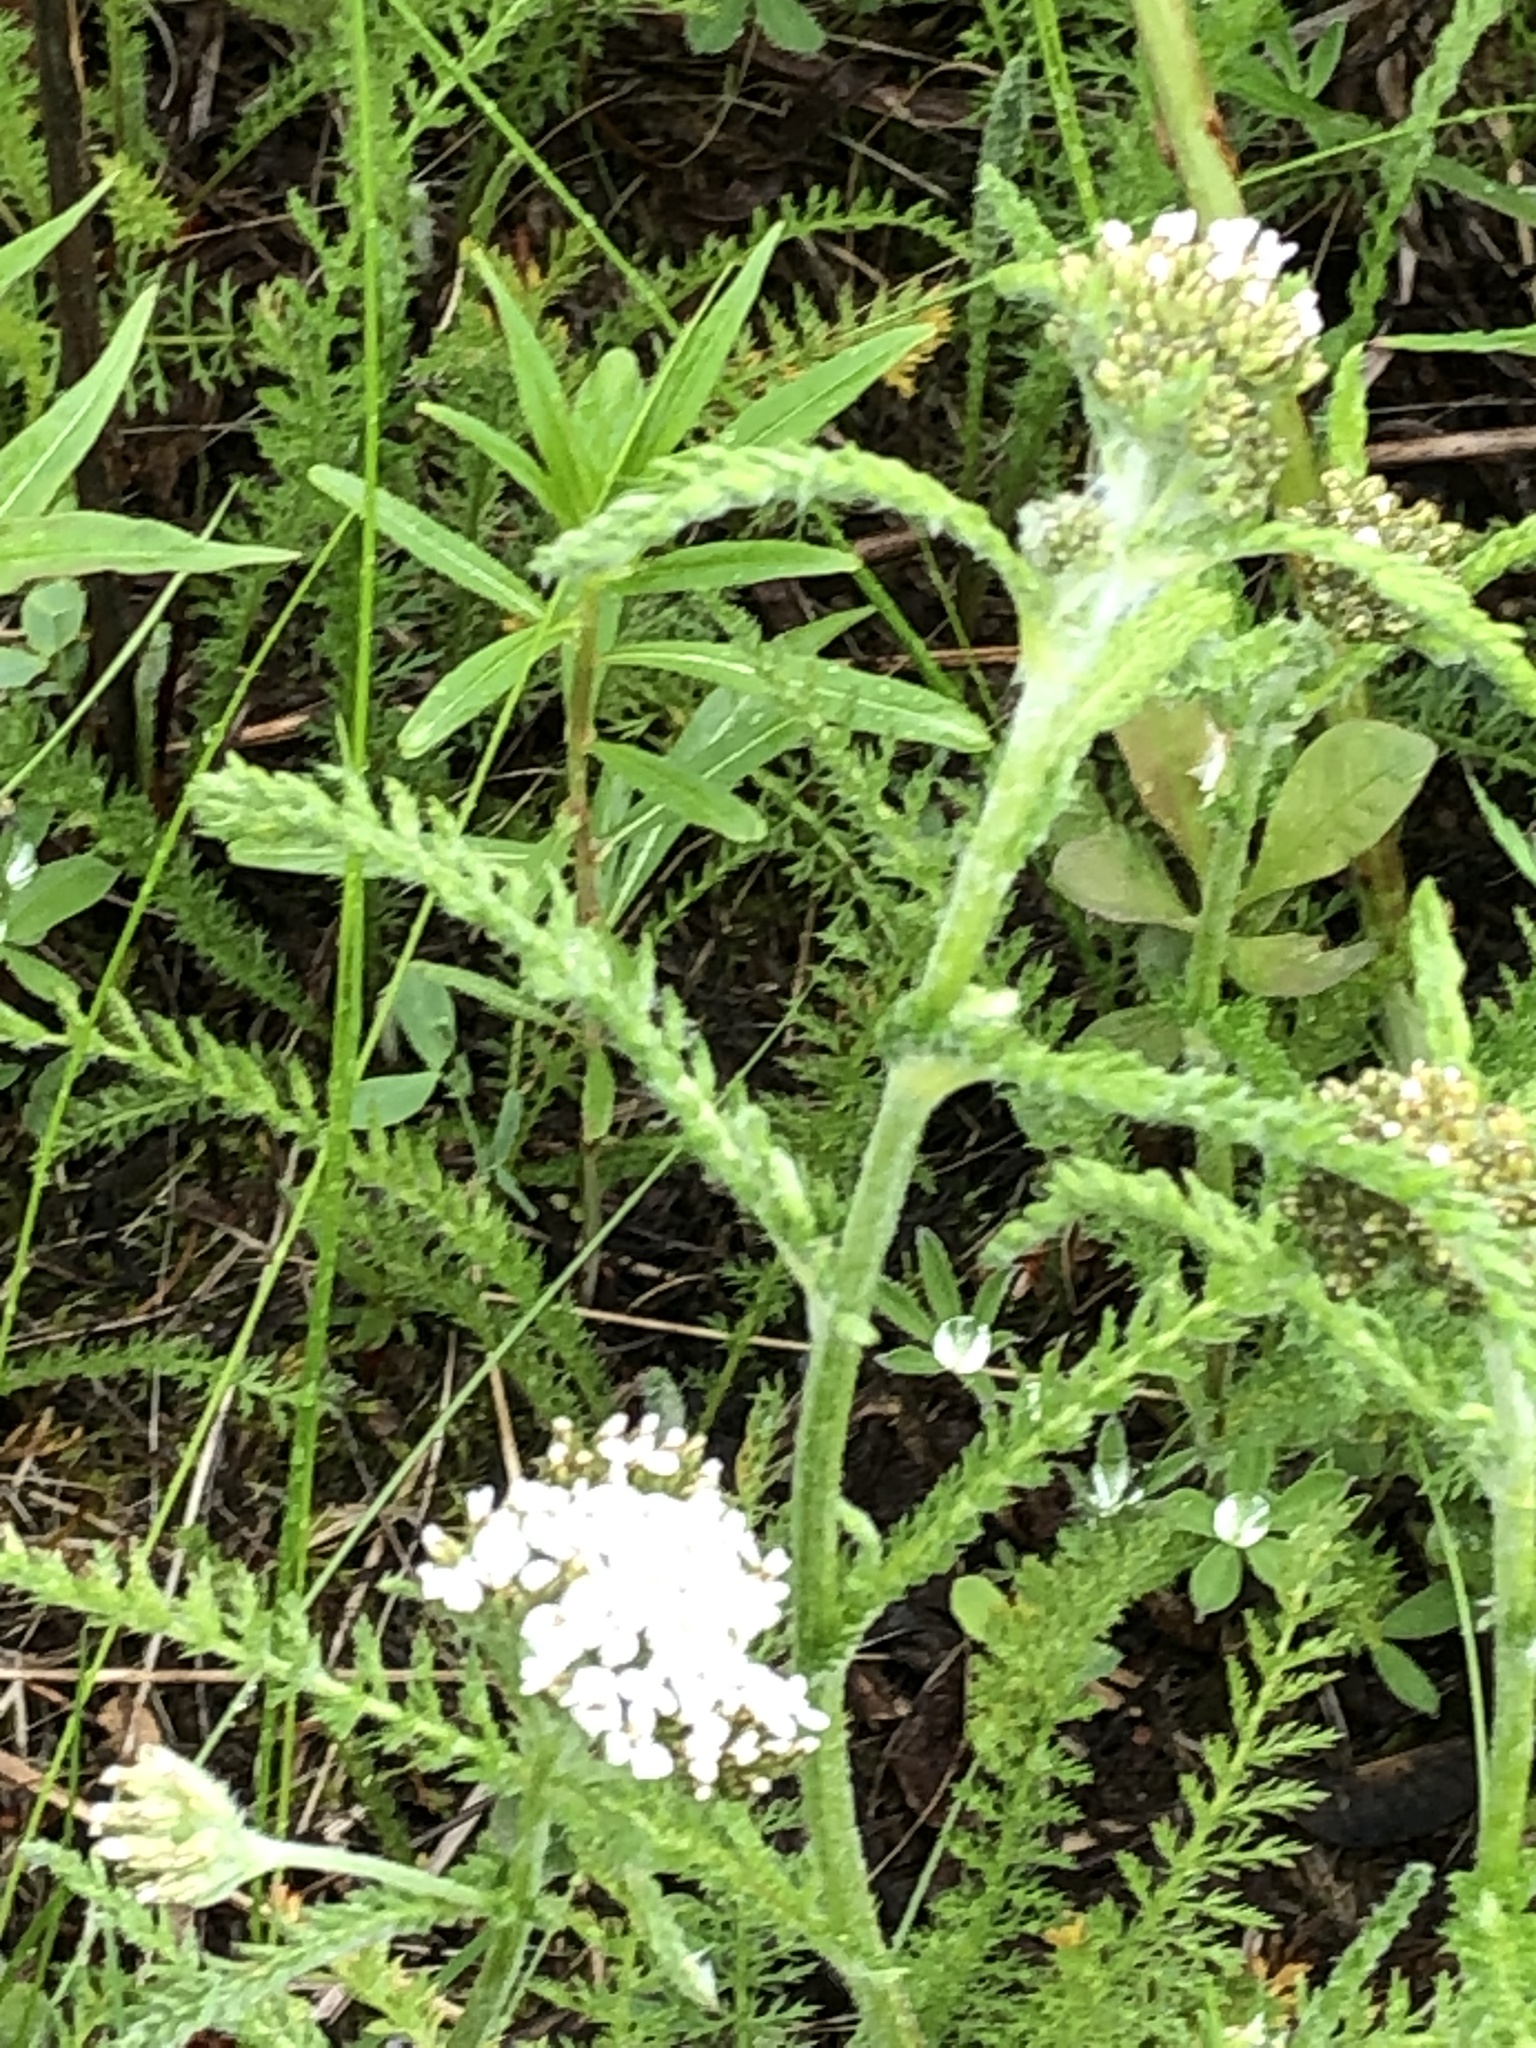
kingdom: Plantae
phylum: Tracheophyta
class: Magnoliopsida
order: Asterales
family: Asteraceae
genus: Achillea
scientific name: Achillea millefolium
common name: Yarrow
